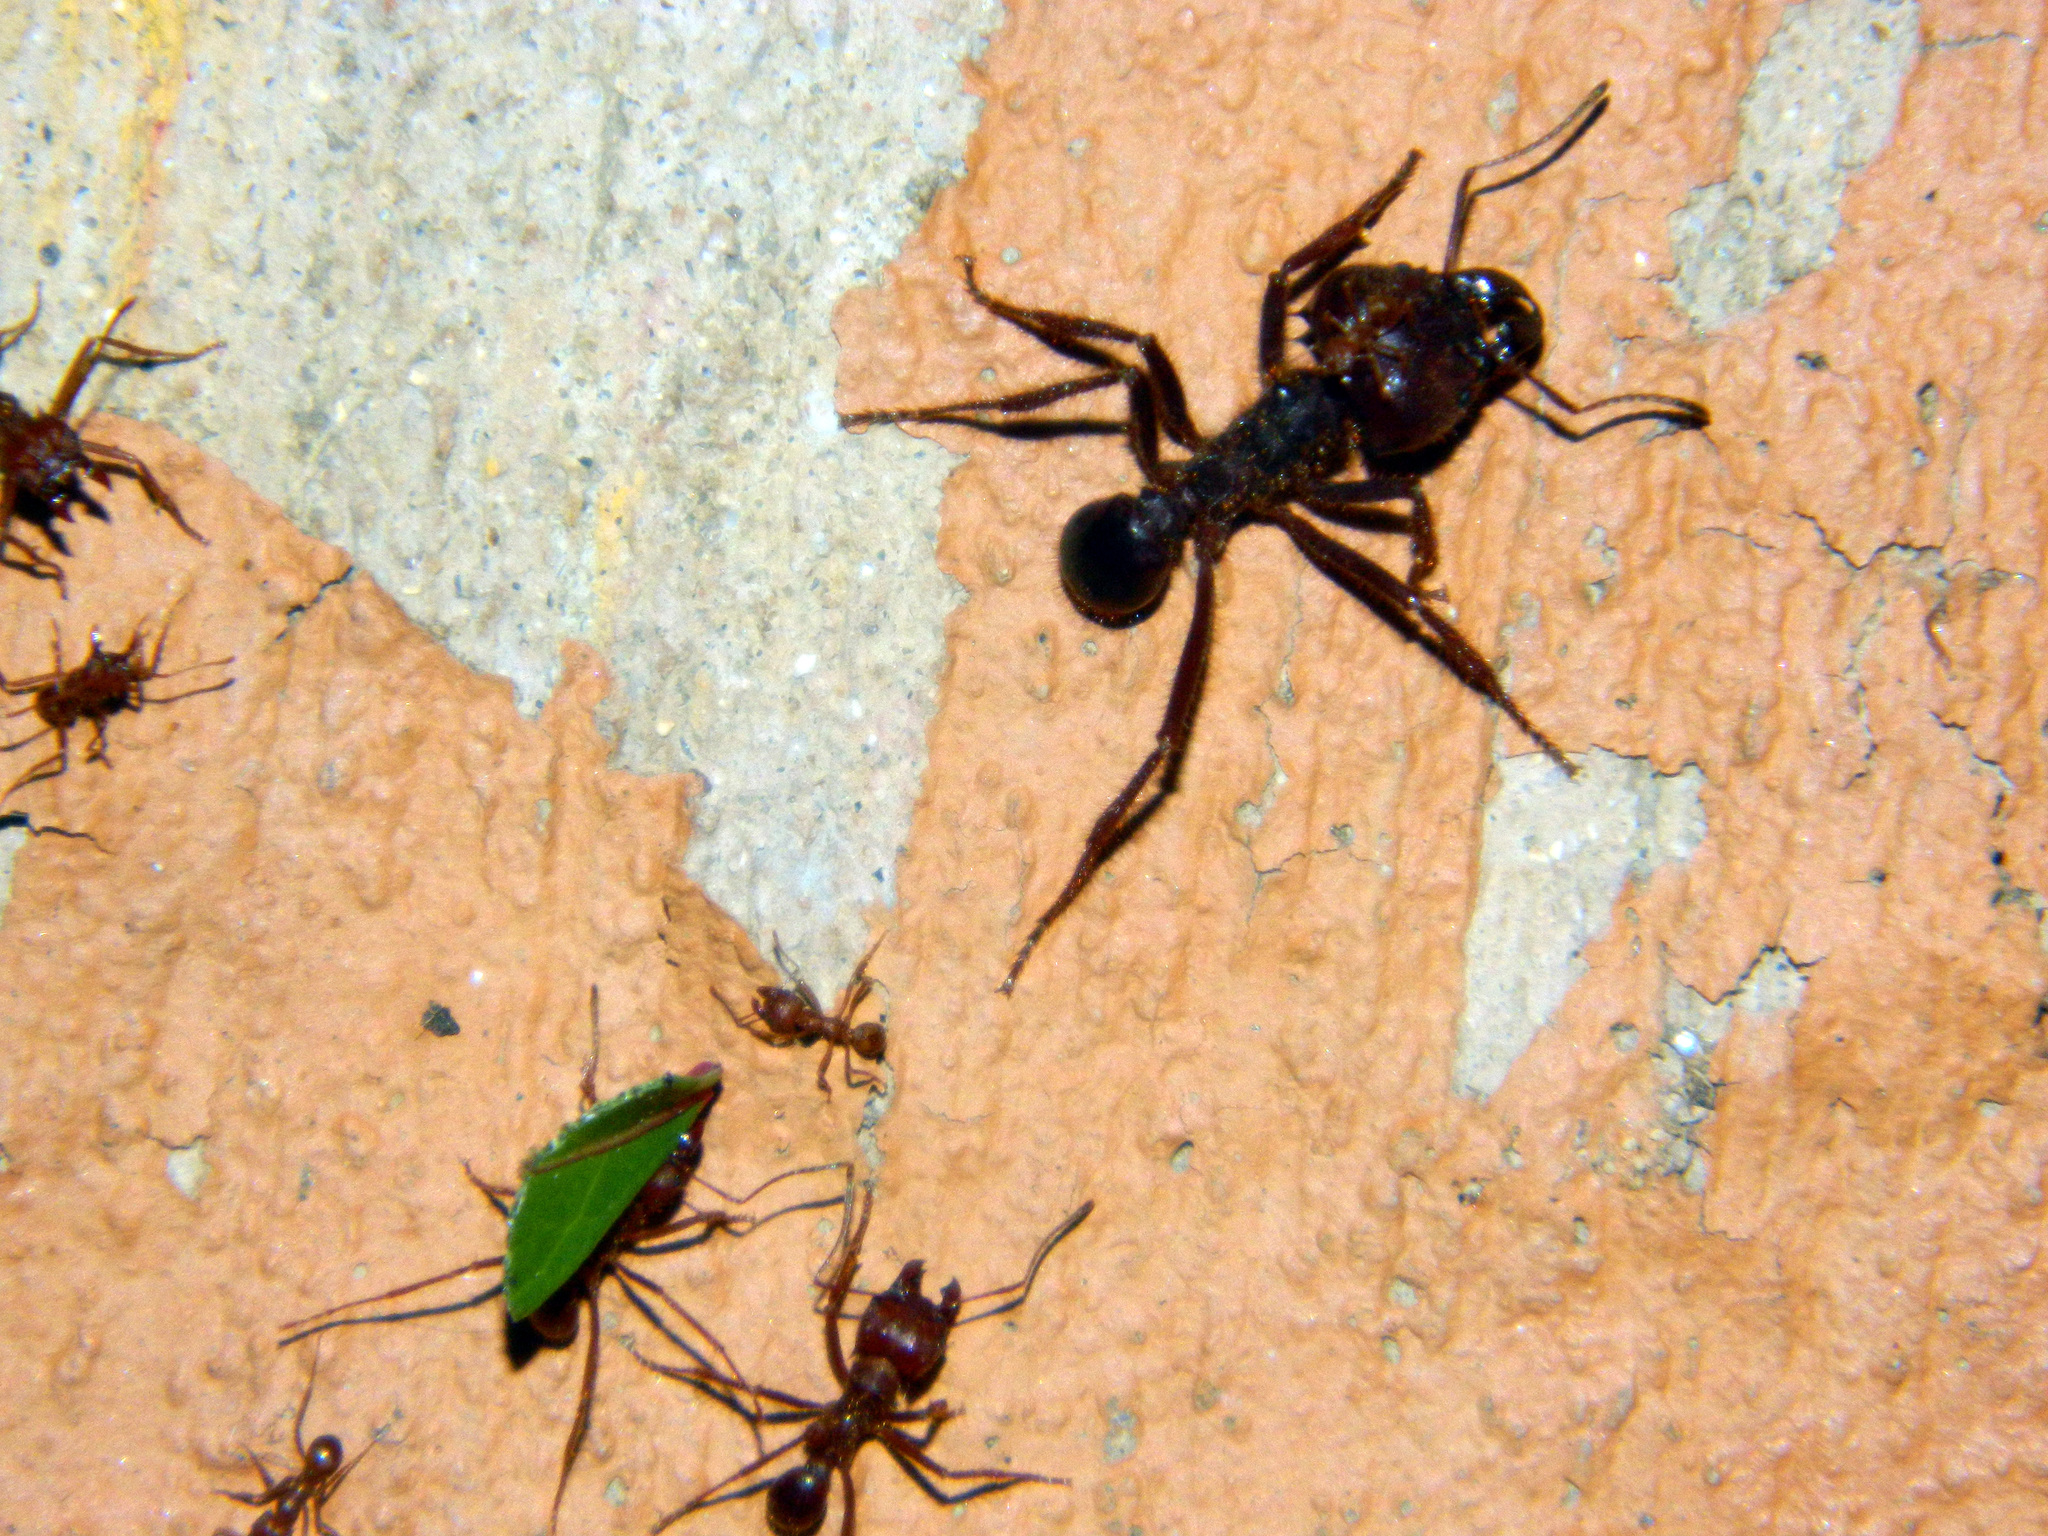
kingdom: Animalia
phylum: Arthropoda
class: Insecta
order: Hymenoptera
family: Formicidae
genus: Atta
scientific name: Atta mexicana
